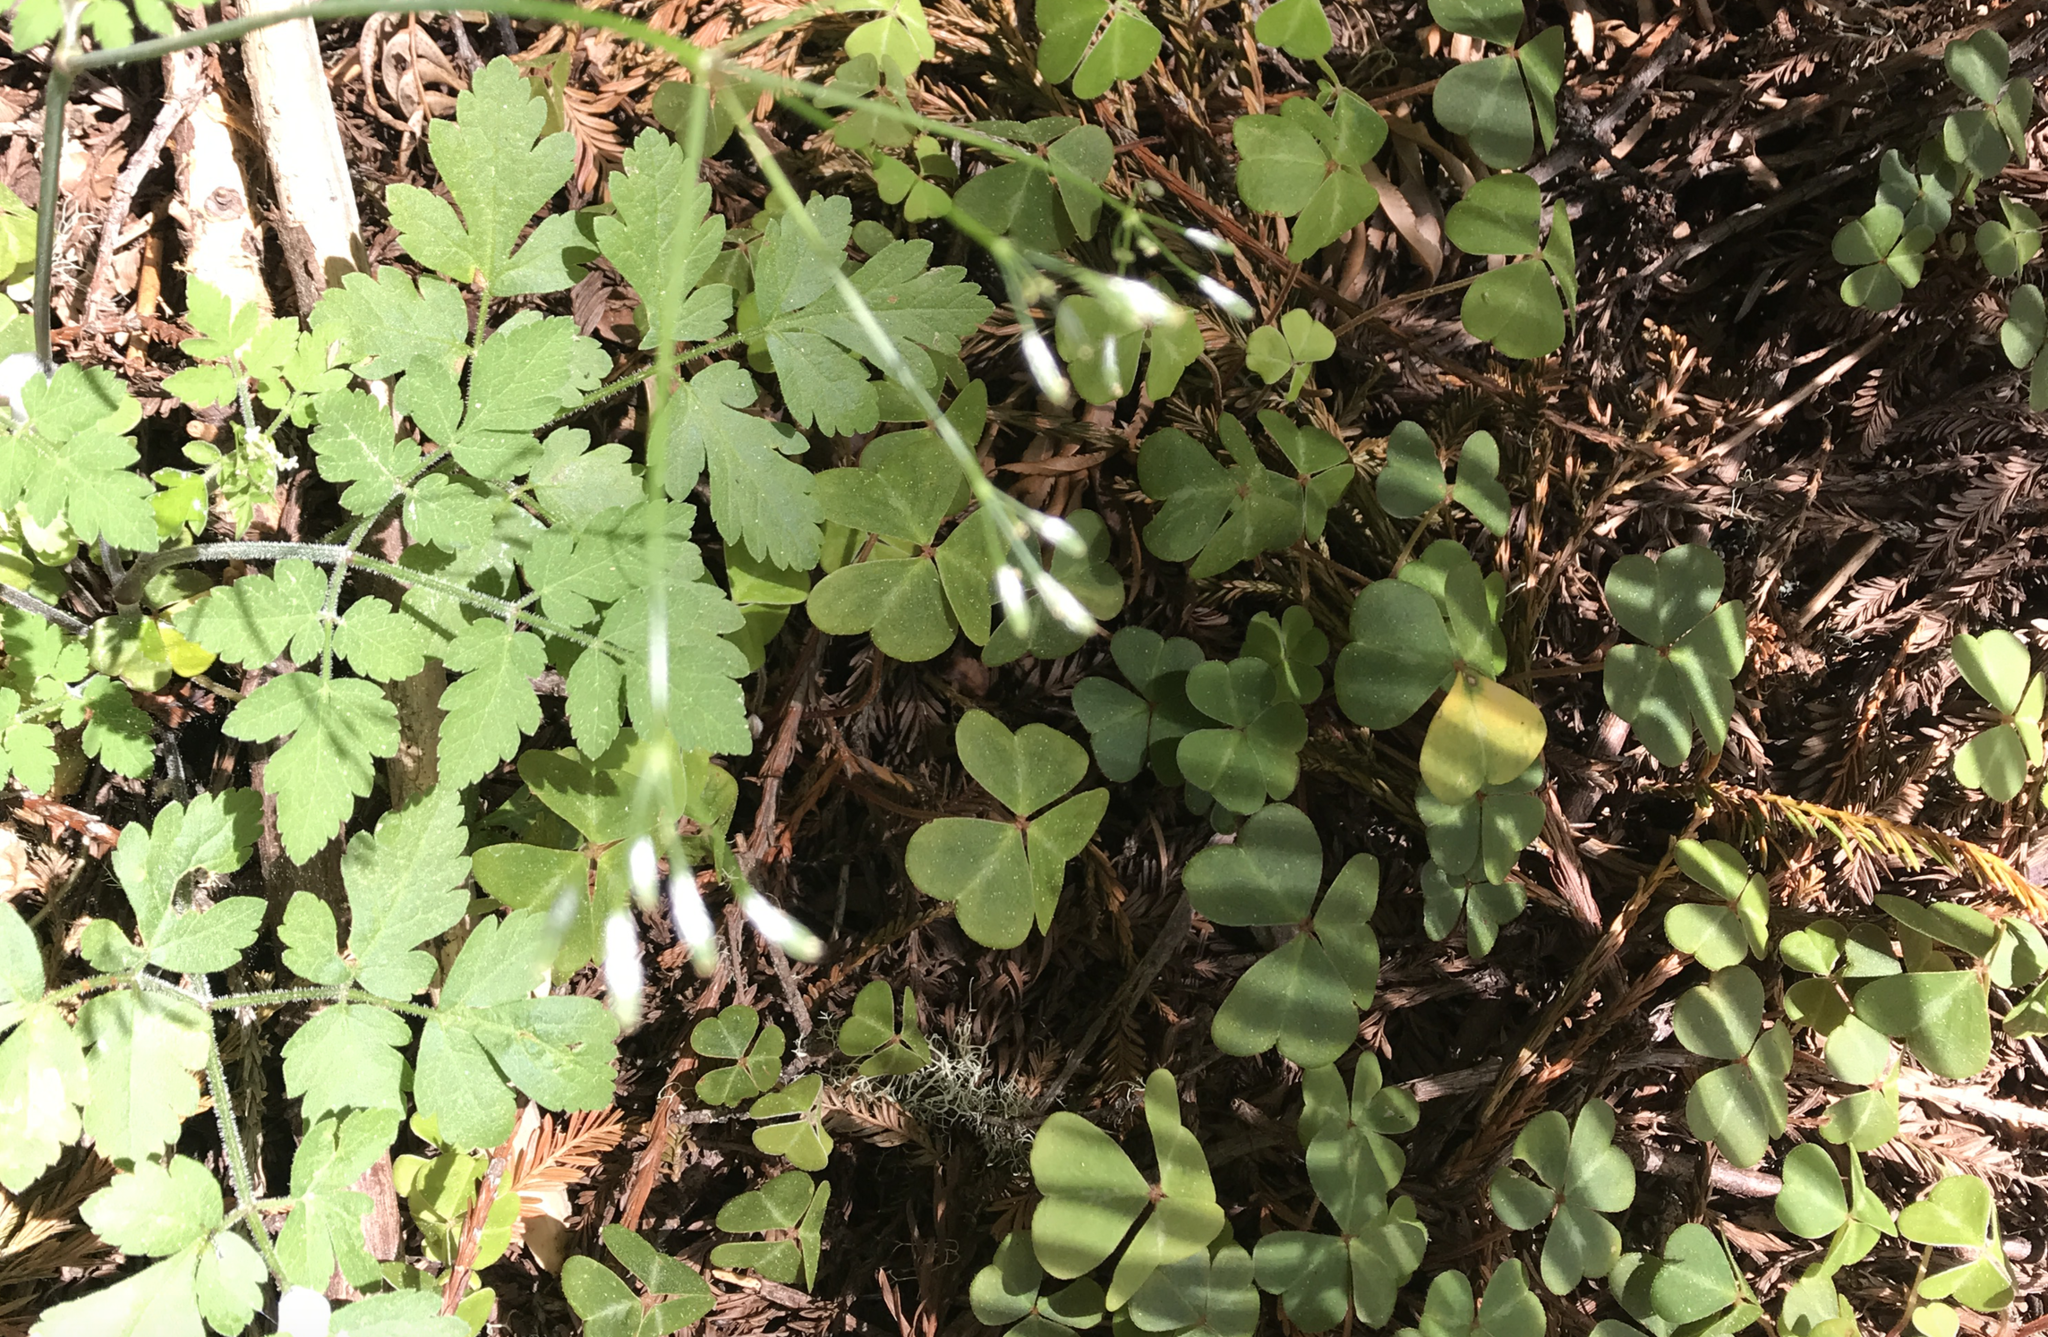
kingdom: Plantae
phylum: Tracheophyta
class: Magnoliopsida
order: Apiales
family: Apiaceae
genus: Osmorhiza
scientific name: Osmorhiza berteroi
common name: Mountain sweet cicely
